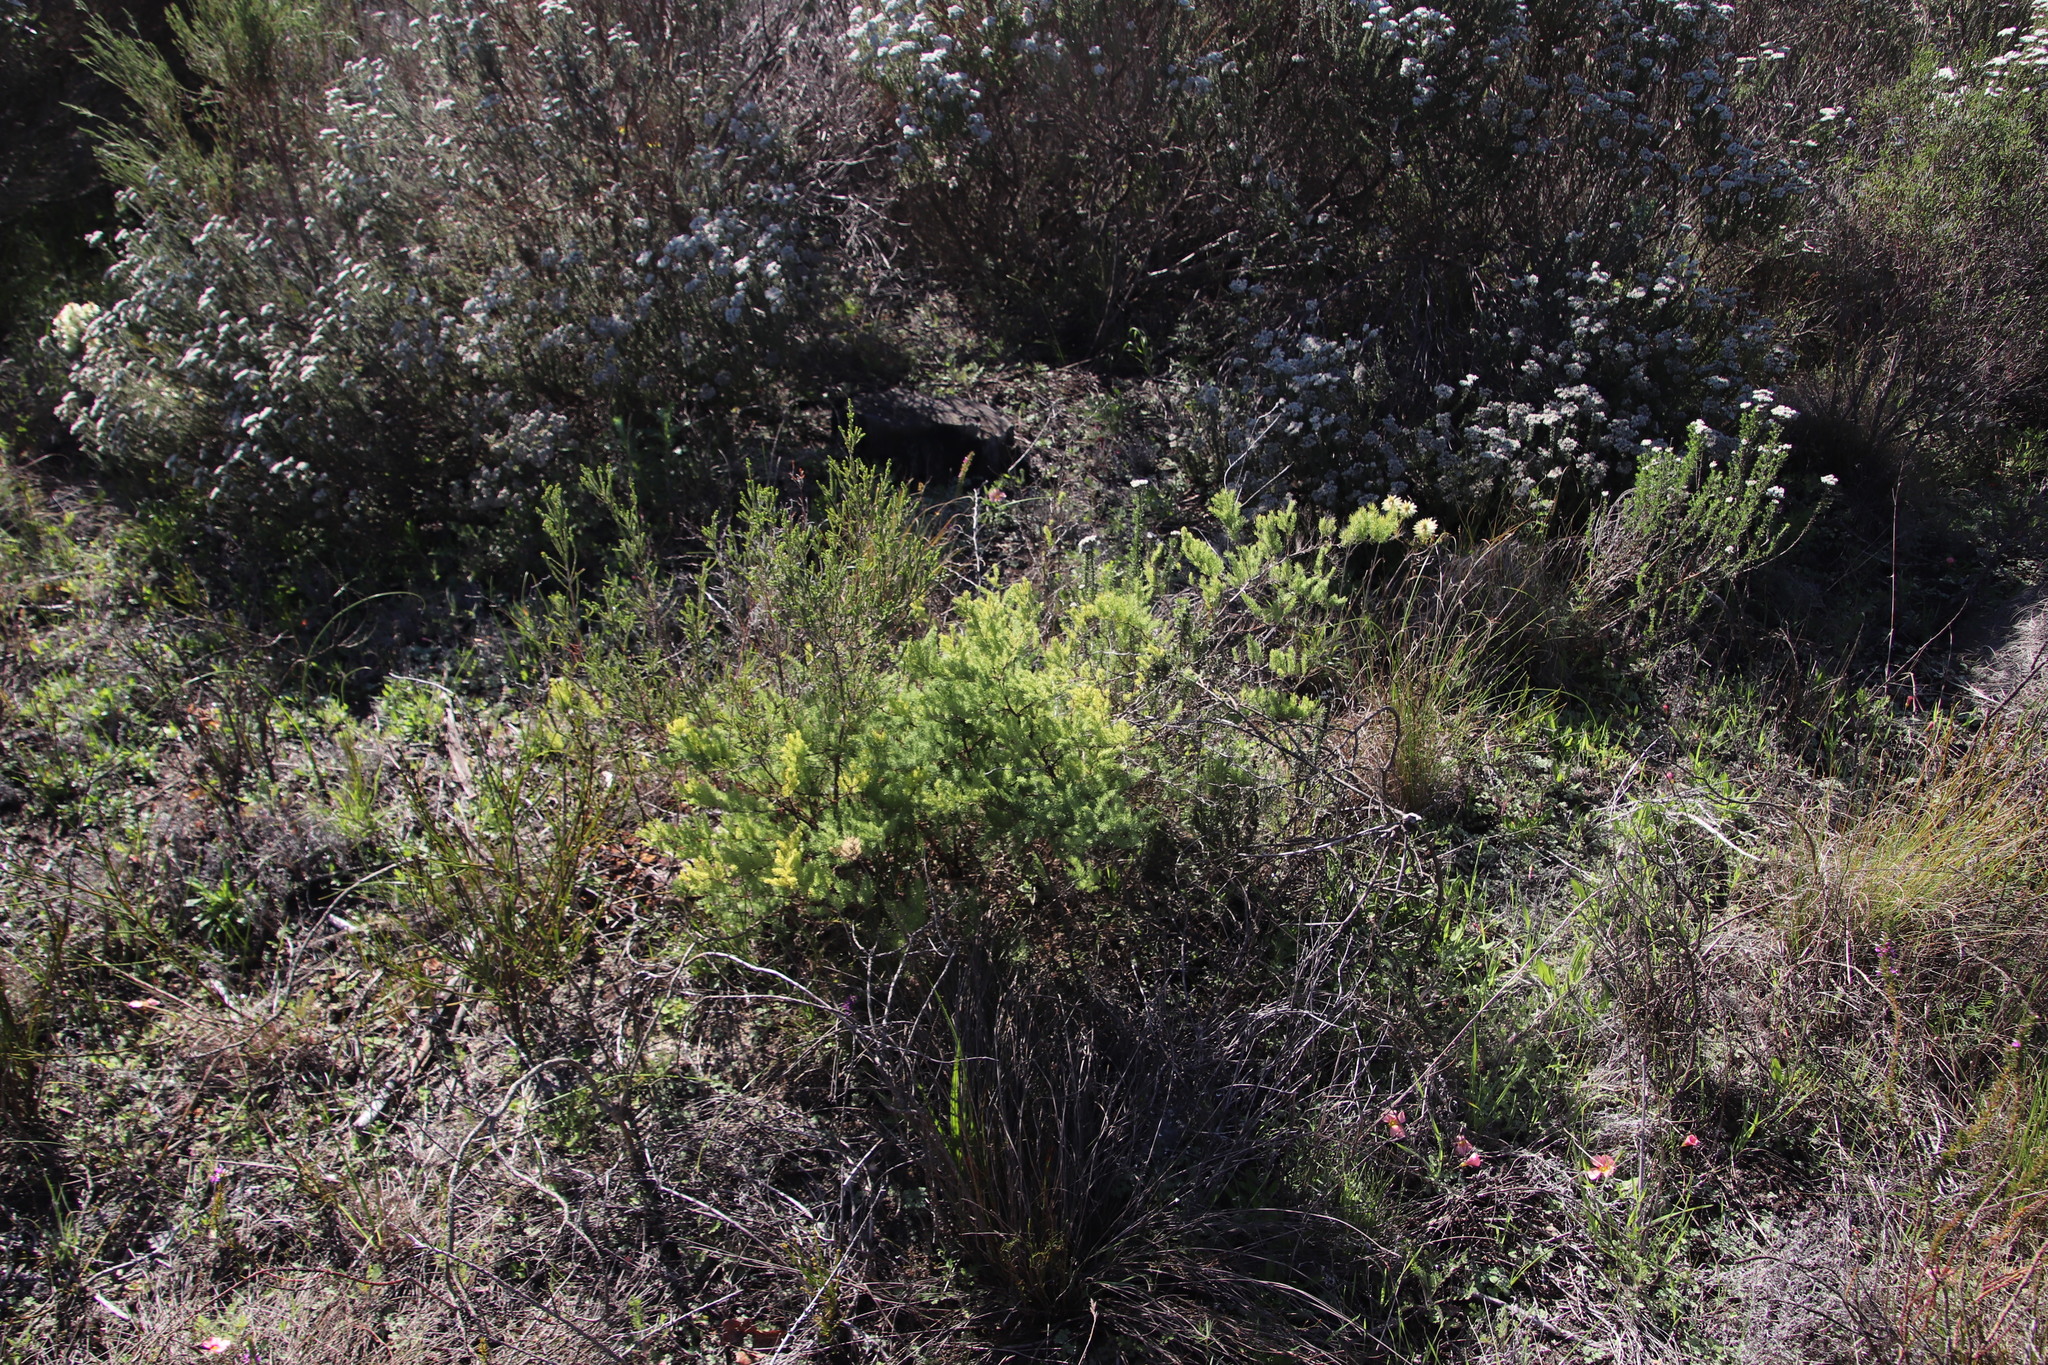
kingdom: Plantae
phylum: Tracheophyta
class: Liliopsida
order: Asparagales
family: Asparagaceae
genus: Asparagus
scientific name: Asparagus rubicundus
